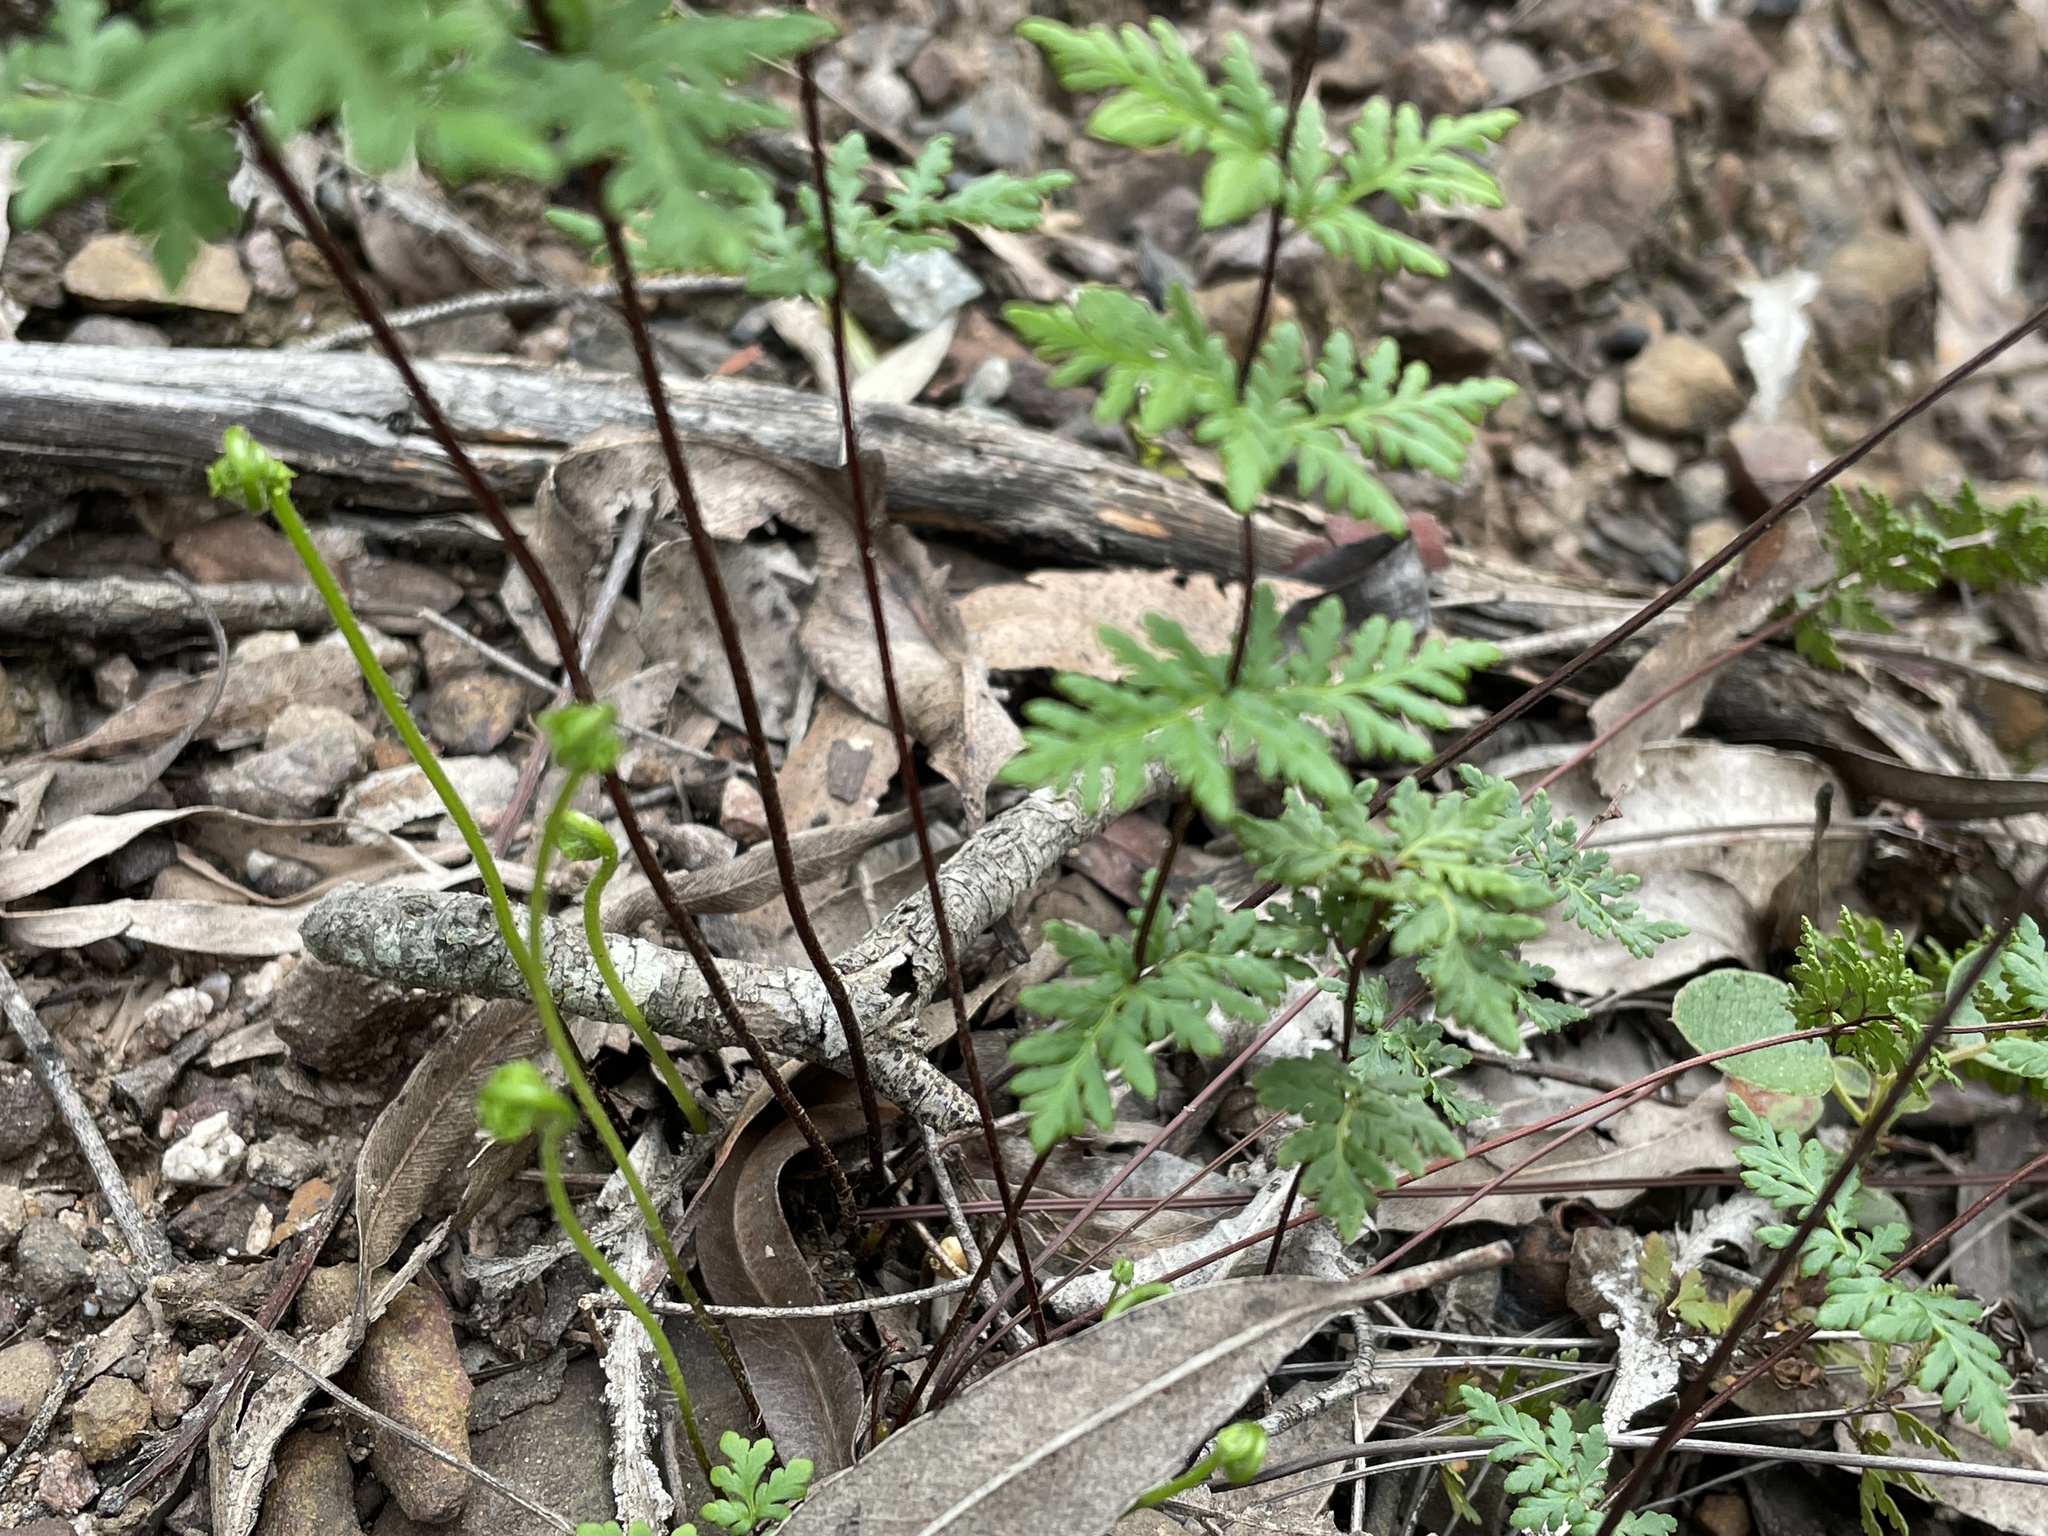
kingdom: Plantae
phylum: Tracheophyta
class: Polypodiopsida
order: Polypodiales
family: Pteridaceae
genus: Cheilanthes
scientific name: Cheilanthes sieberi
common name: Mulga fern
